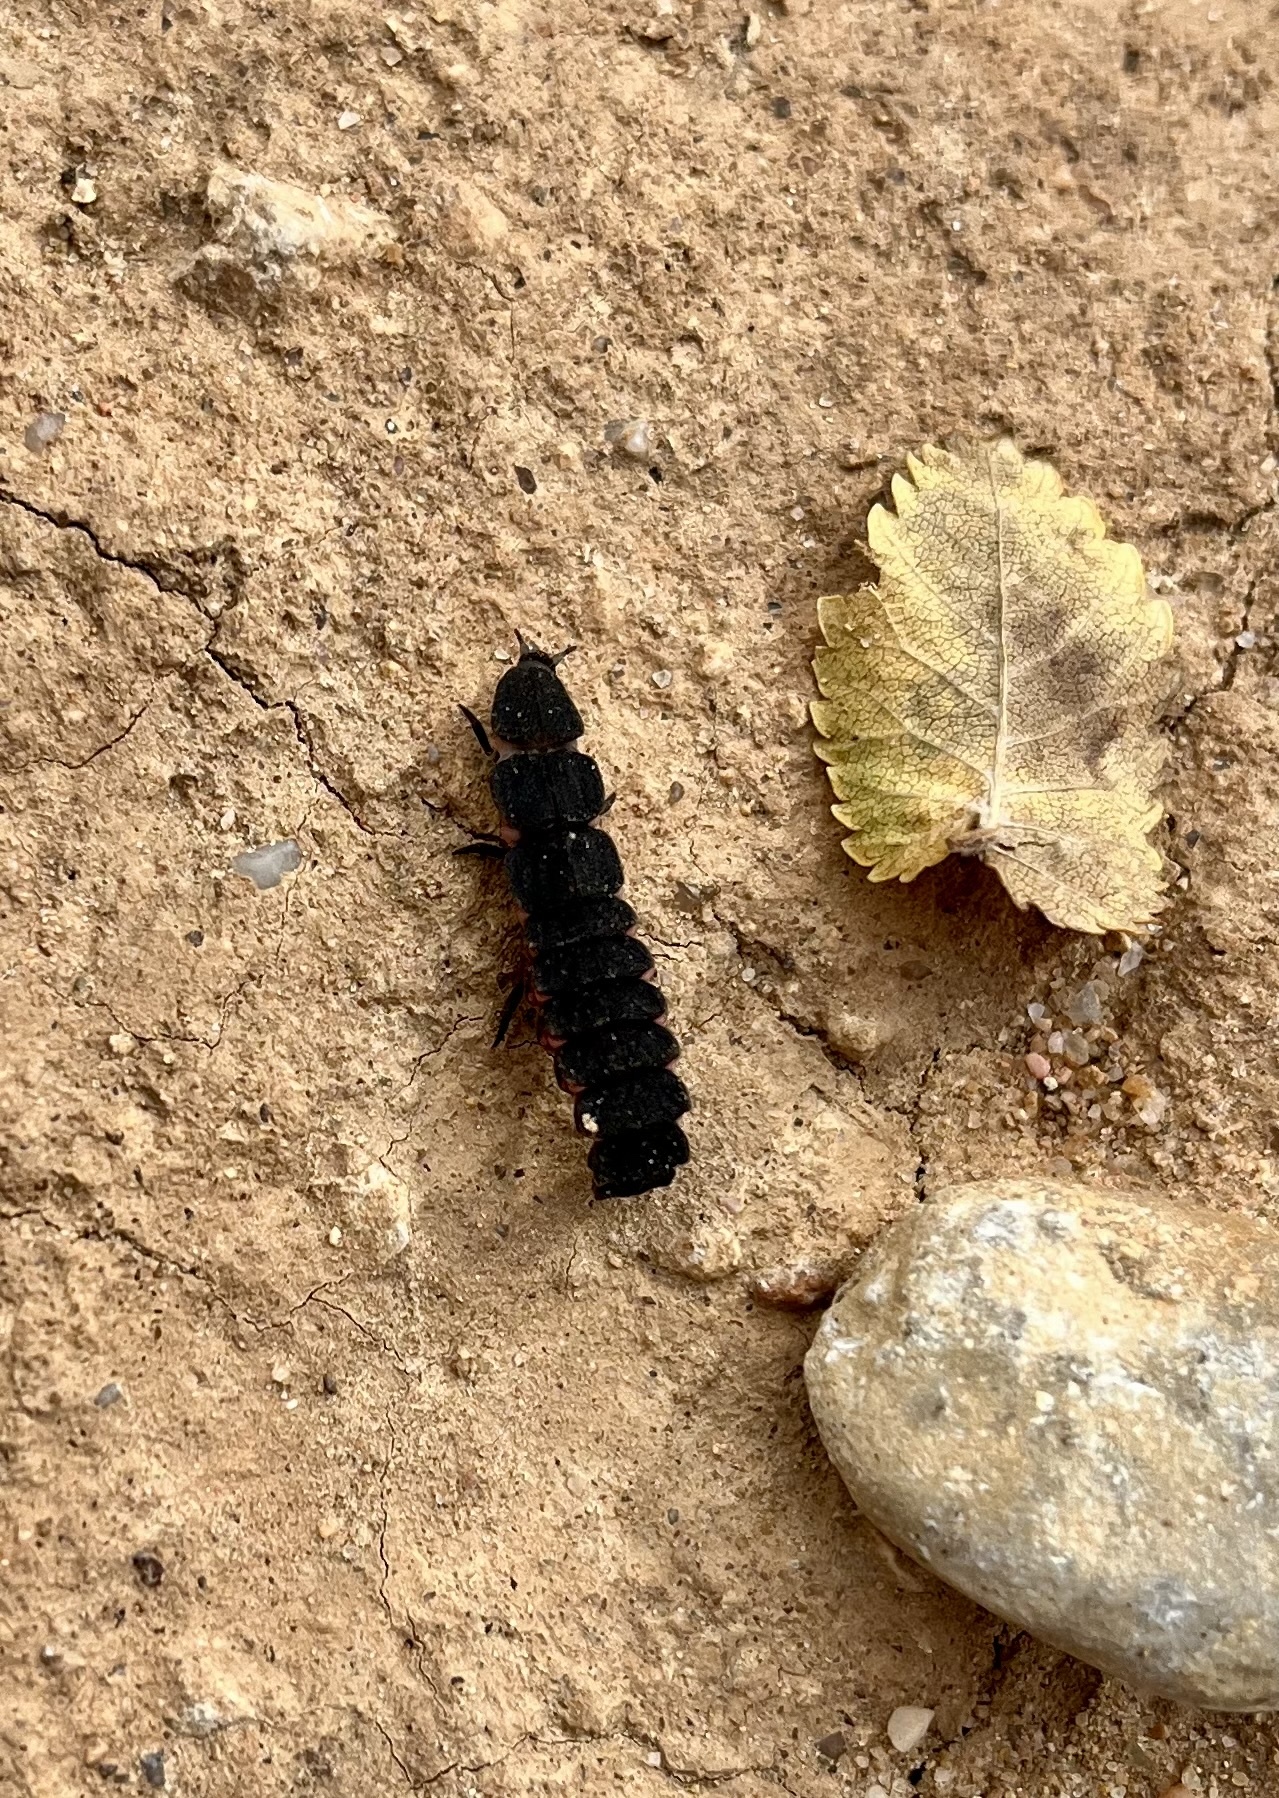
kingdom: Animalia
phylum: Arthropoda
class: Insecta
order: Coleoptera
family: Lampyridae
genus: Nyctophila
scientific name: Nyctophila reichii
